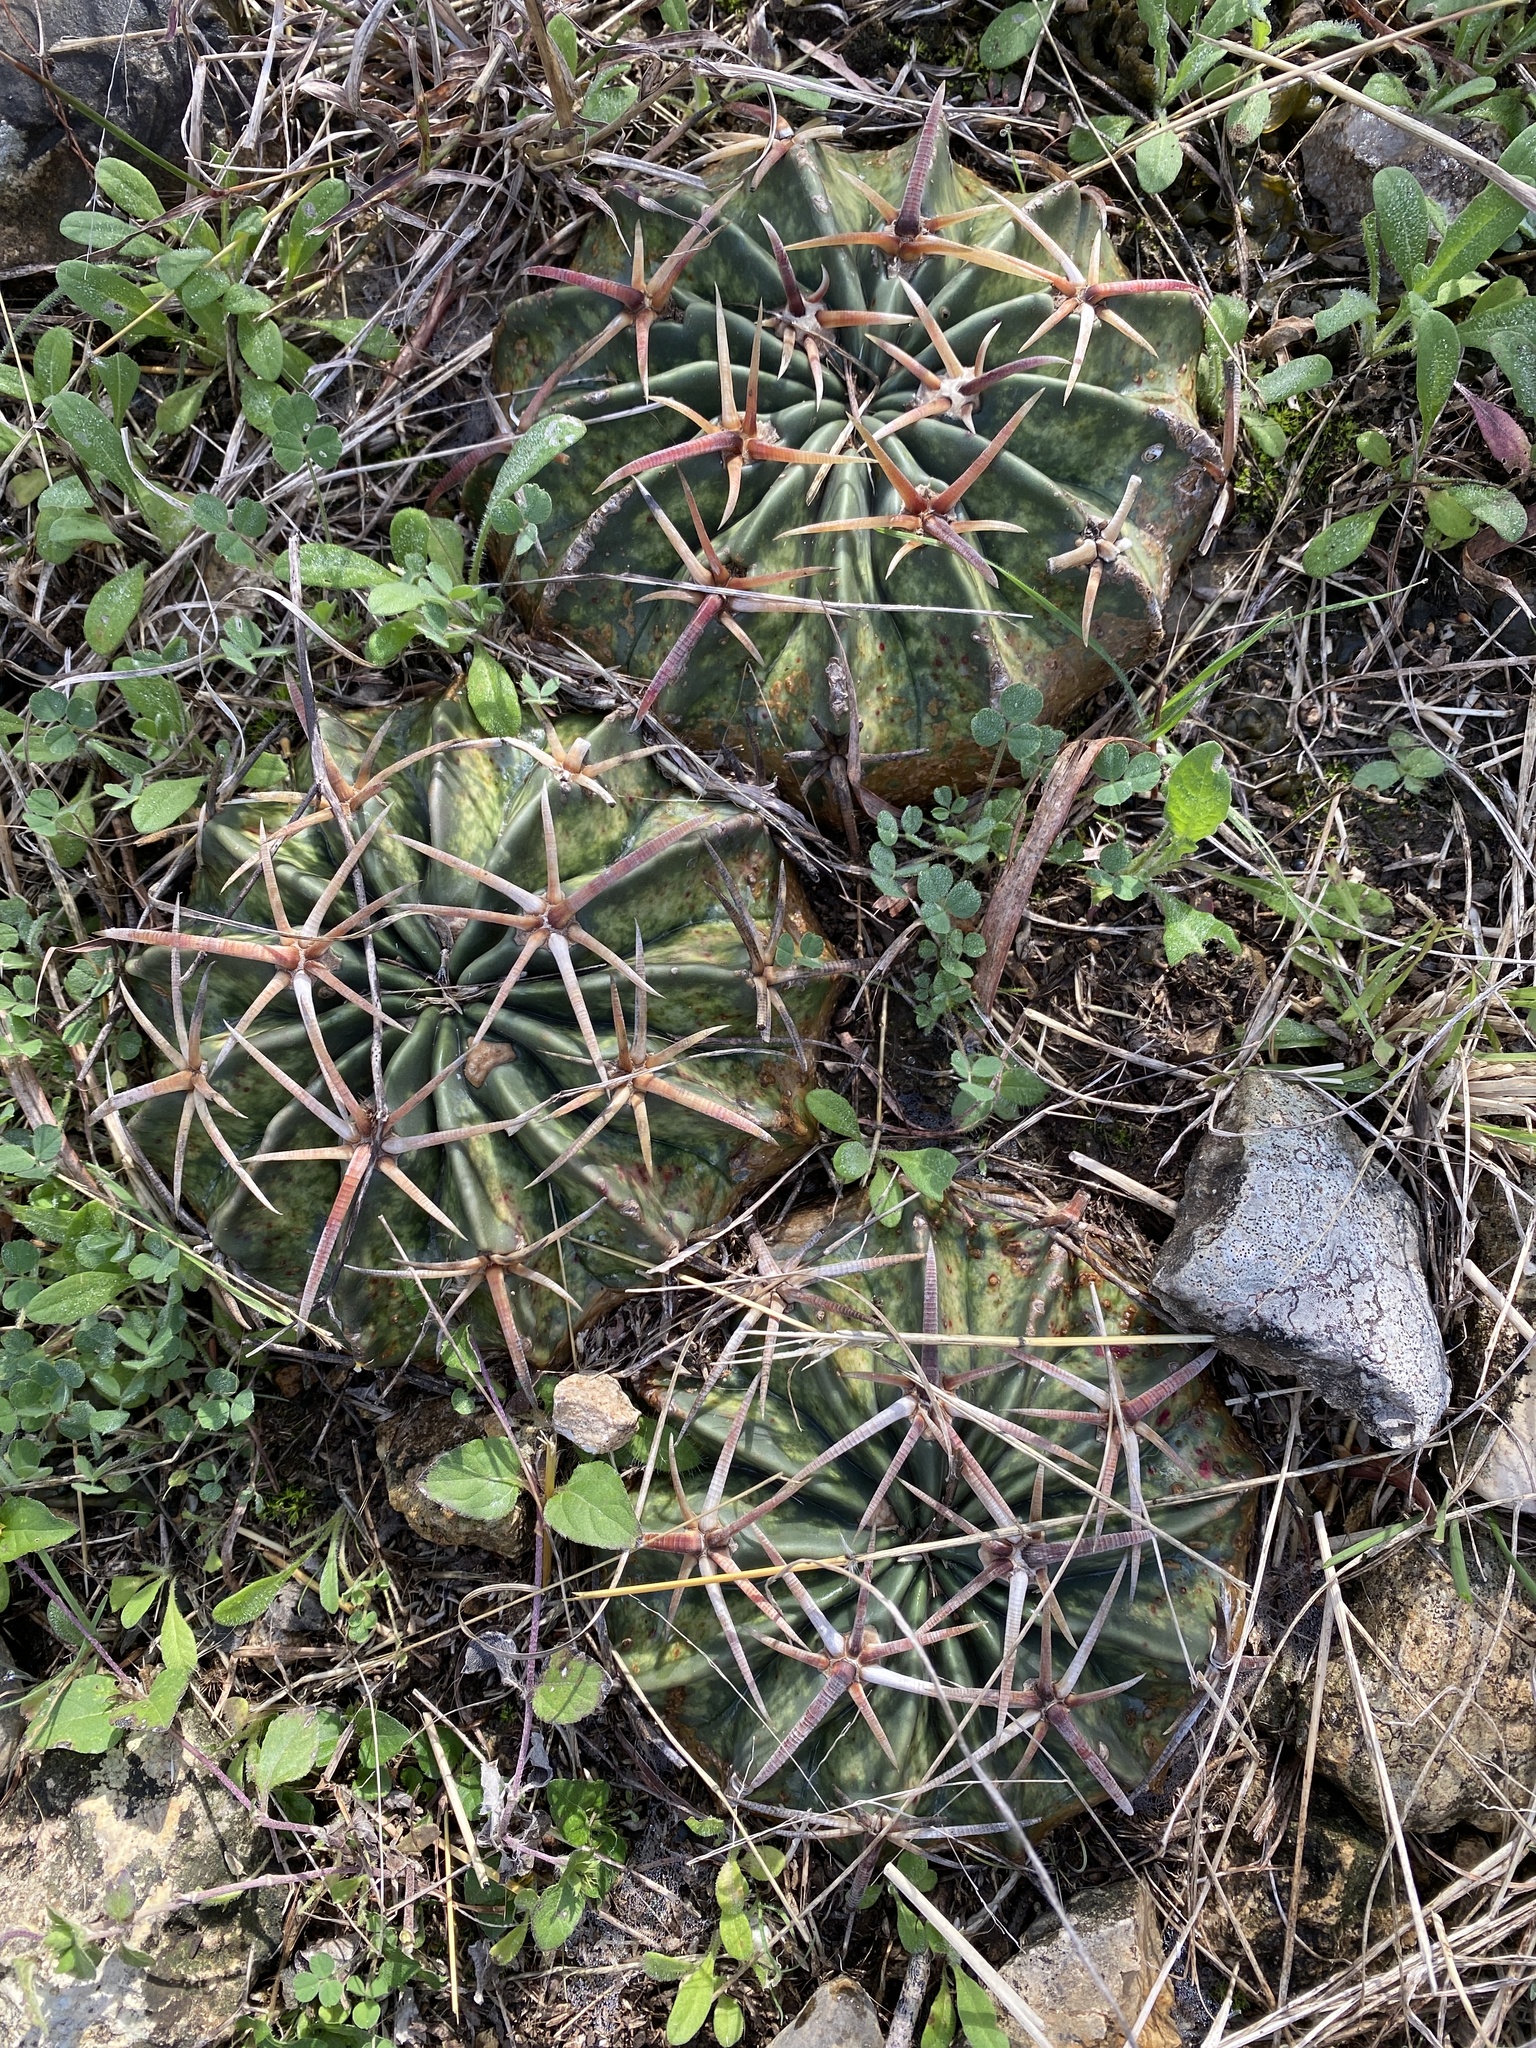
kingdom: Plantae
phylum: Tracheophyta
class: Magnoliopsida
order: Caryophyllales
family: Cactaceae
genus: Echinocactus
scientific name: Echinocactus texensis
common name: Devil's pincushion
